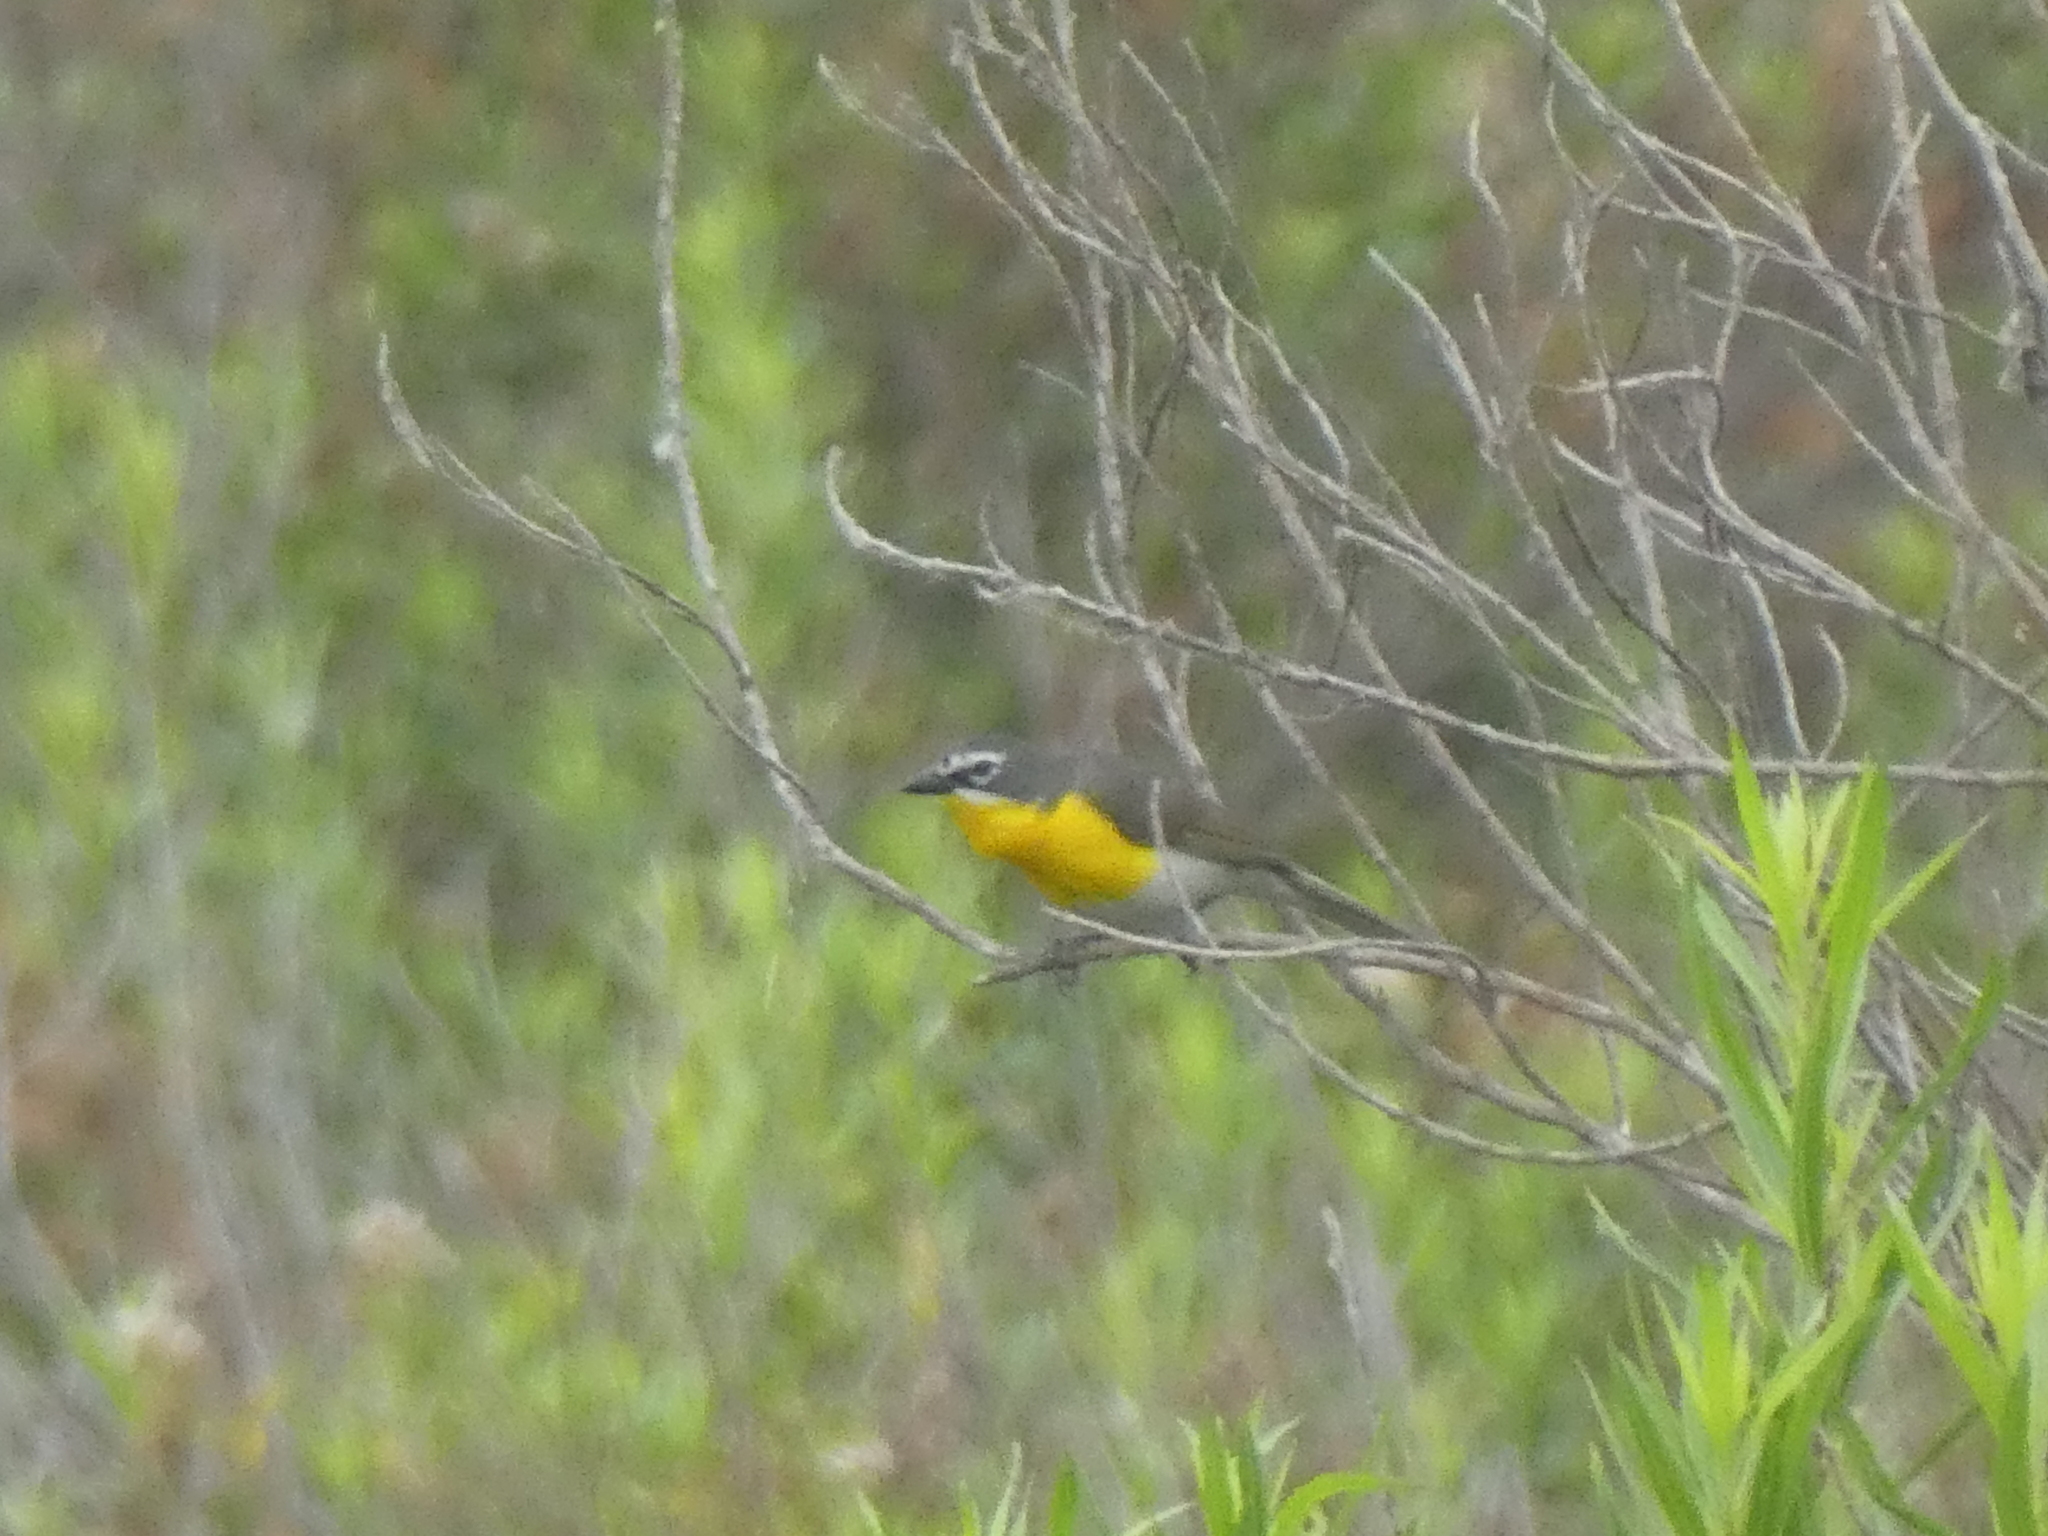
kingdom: Animalia
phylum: Chordata
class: Aves
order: Passeriformes
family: Parulidae
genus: Icteria
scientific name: Icteria virens
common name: Yellow-breasted chat
